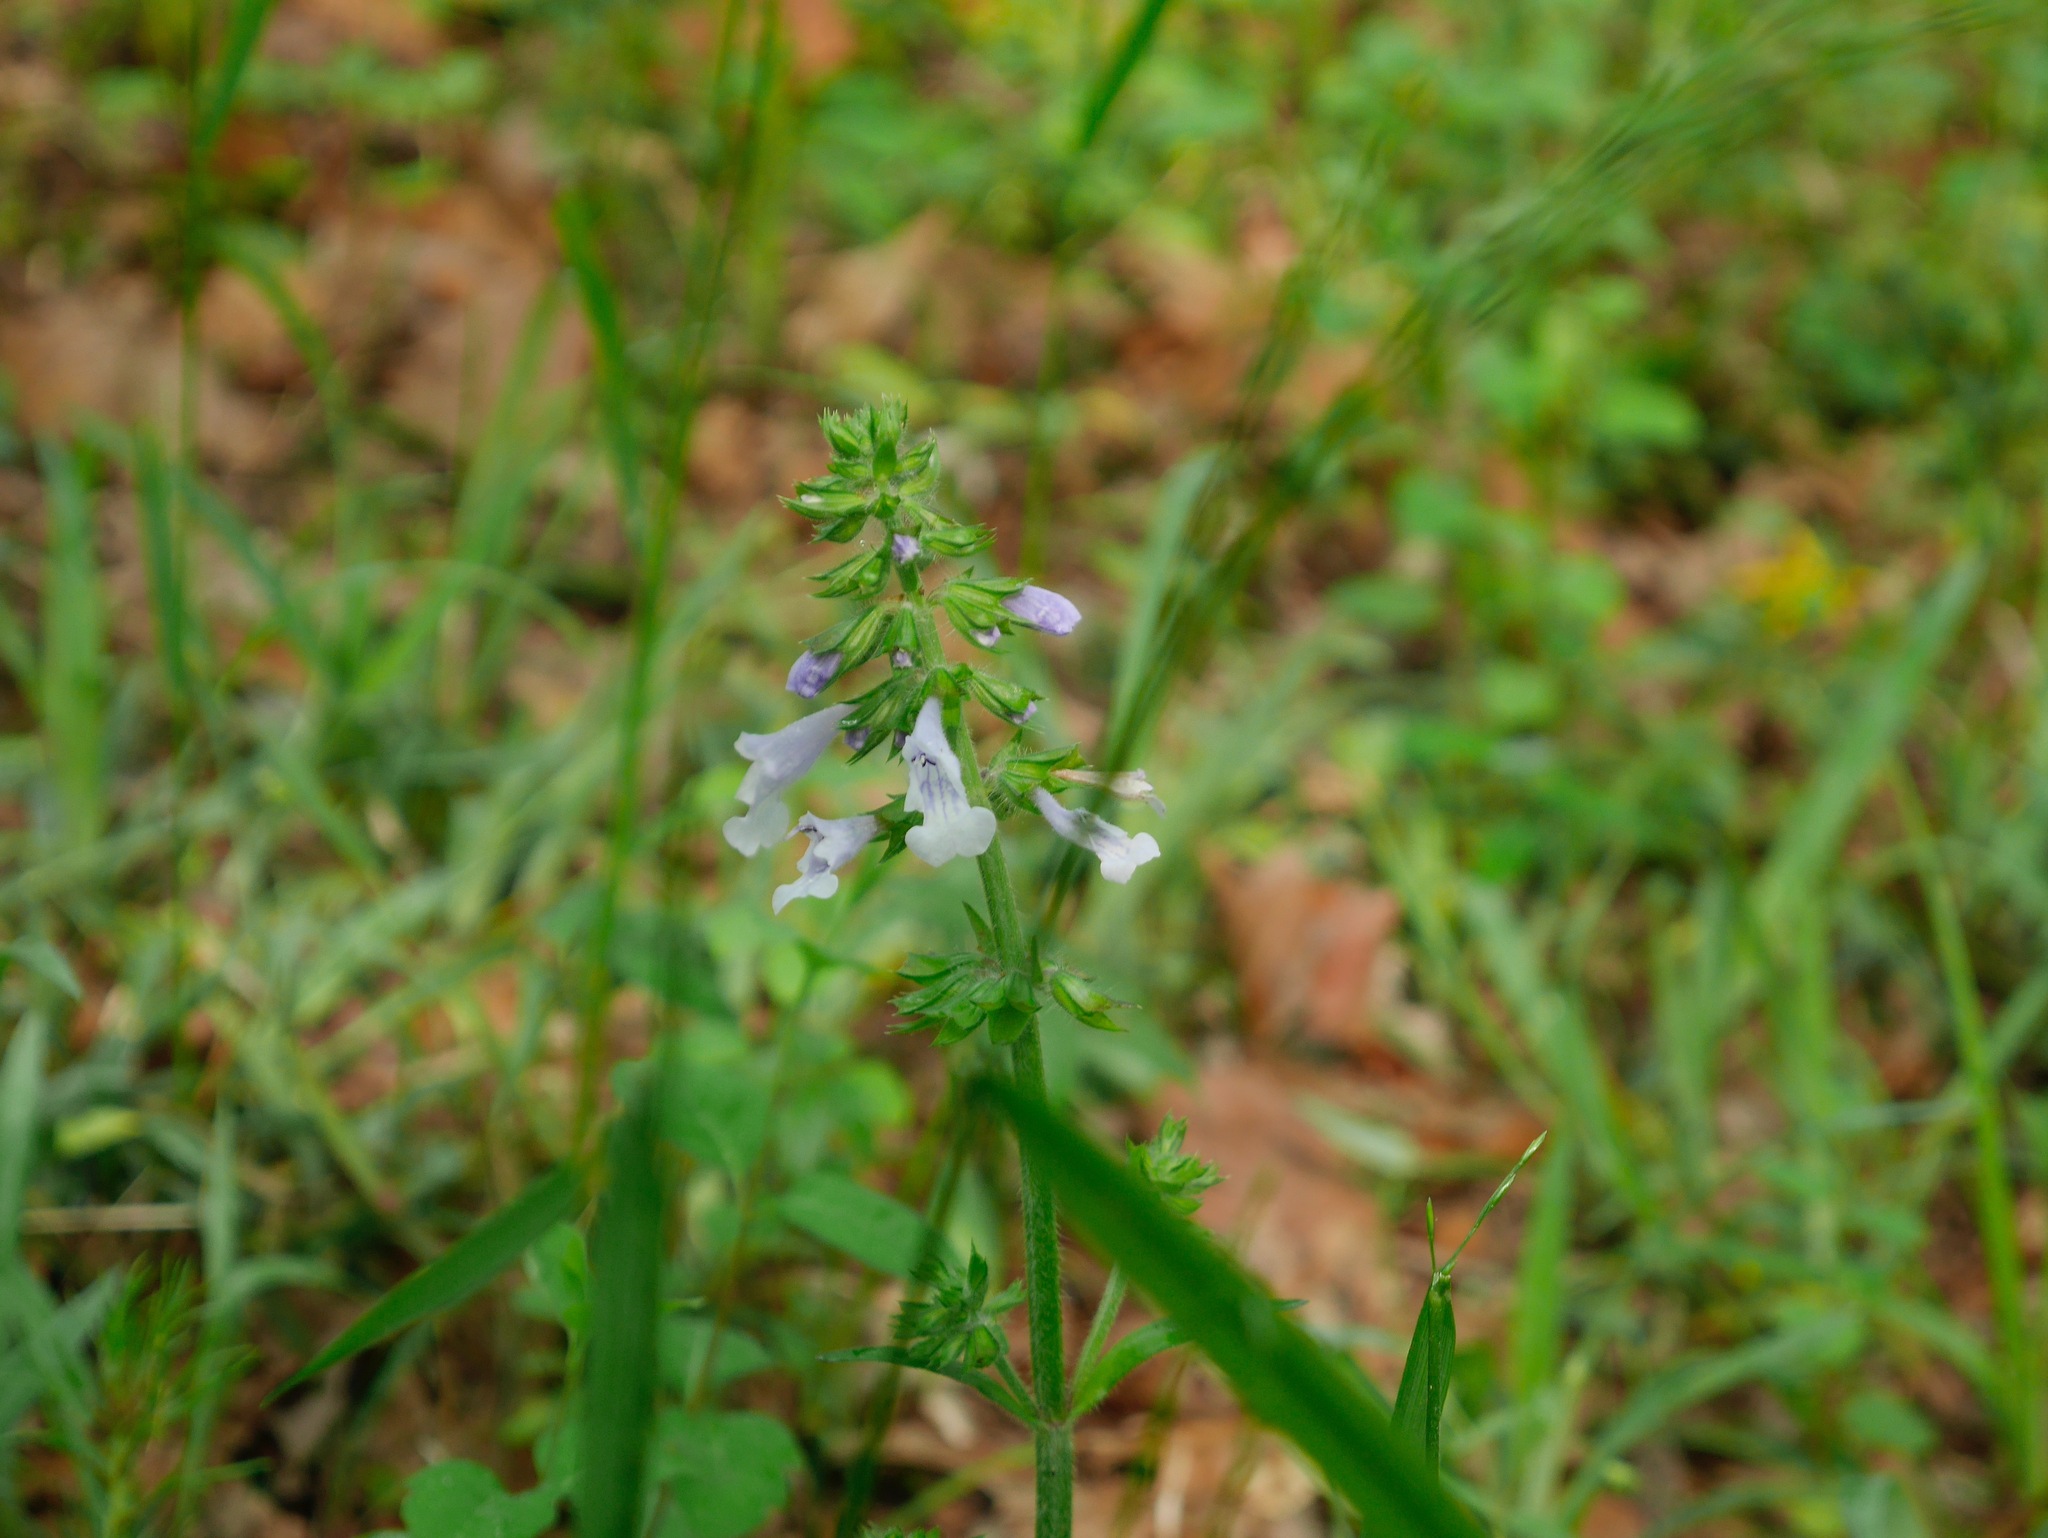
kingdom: Plantae
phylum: Tracheophyta
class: Magnoliopsida
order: Lamiales
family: Lamiaceae
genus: Salvia
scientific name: Salvia lyrata
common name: Cancerweed
